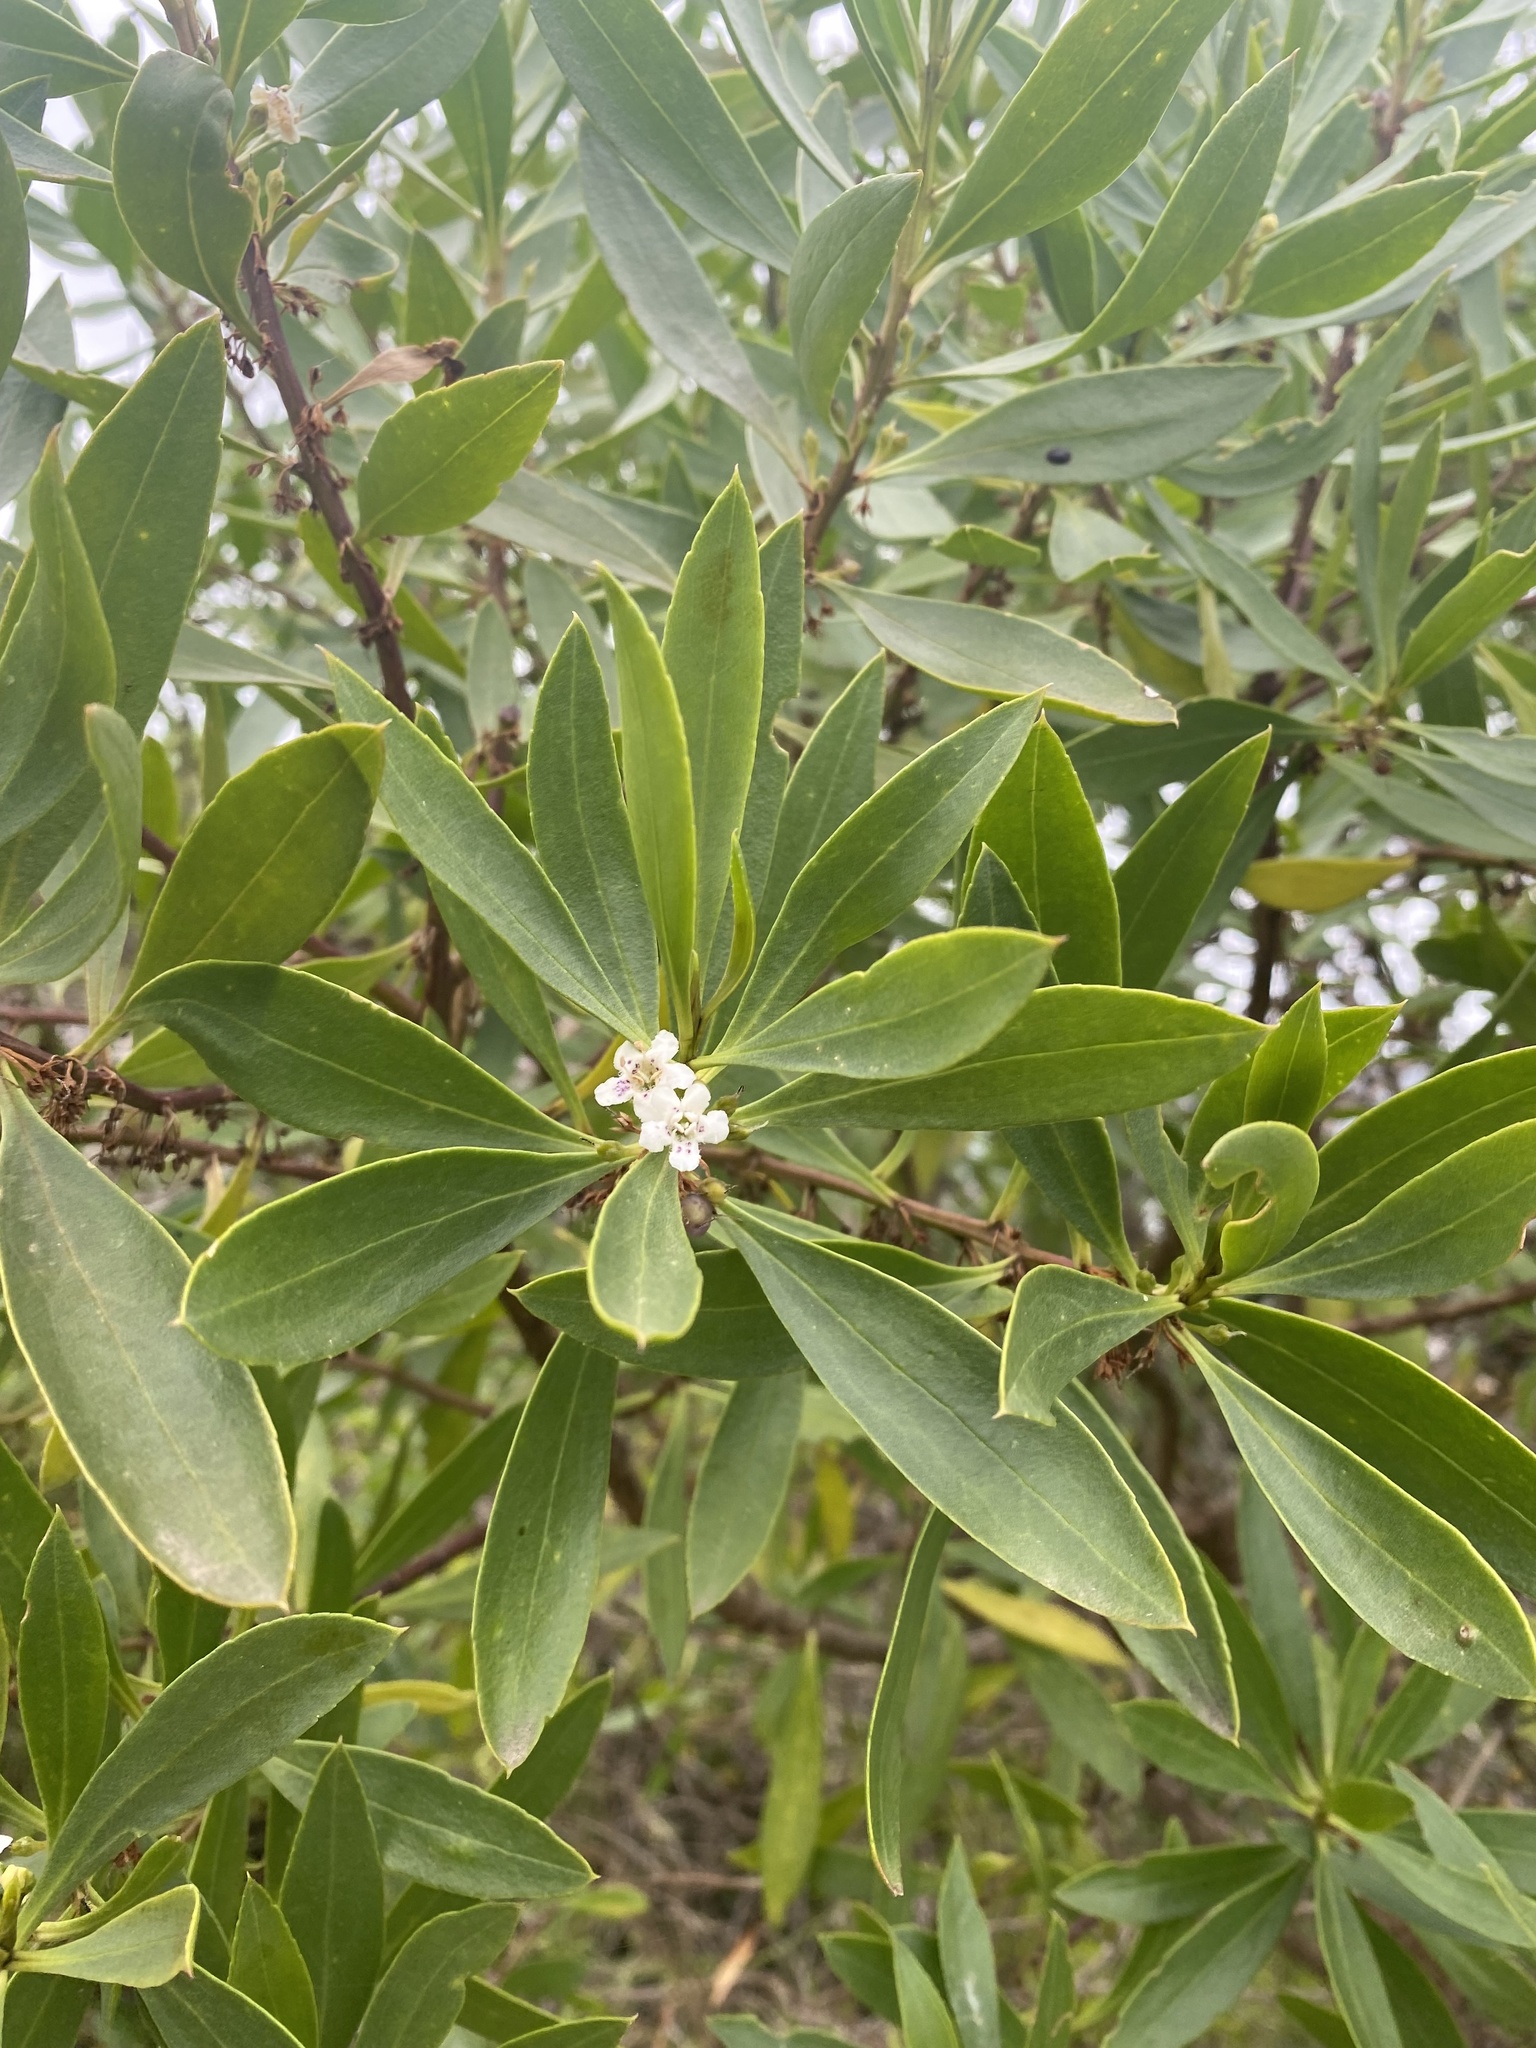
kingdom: Plantae
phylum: Tracheophyta
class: Magnoliopsida
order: Lamiales
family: Scrophulariaceae
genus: Myoporum
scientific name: Myoporum insulare
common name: Common boobialla
